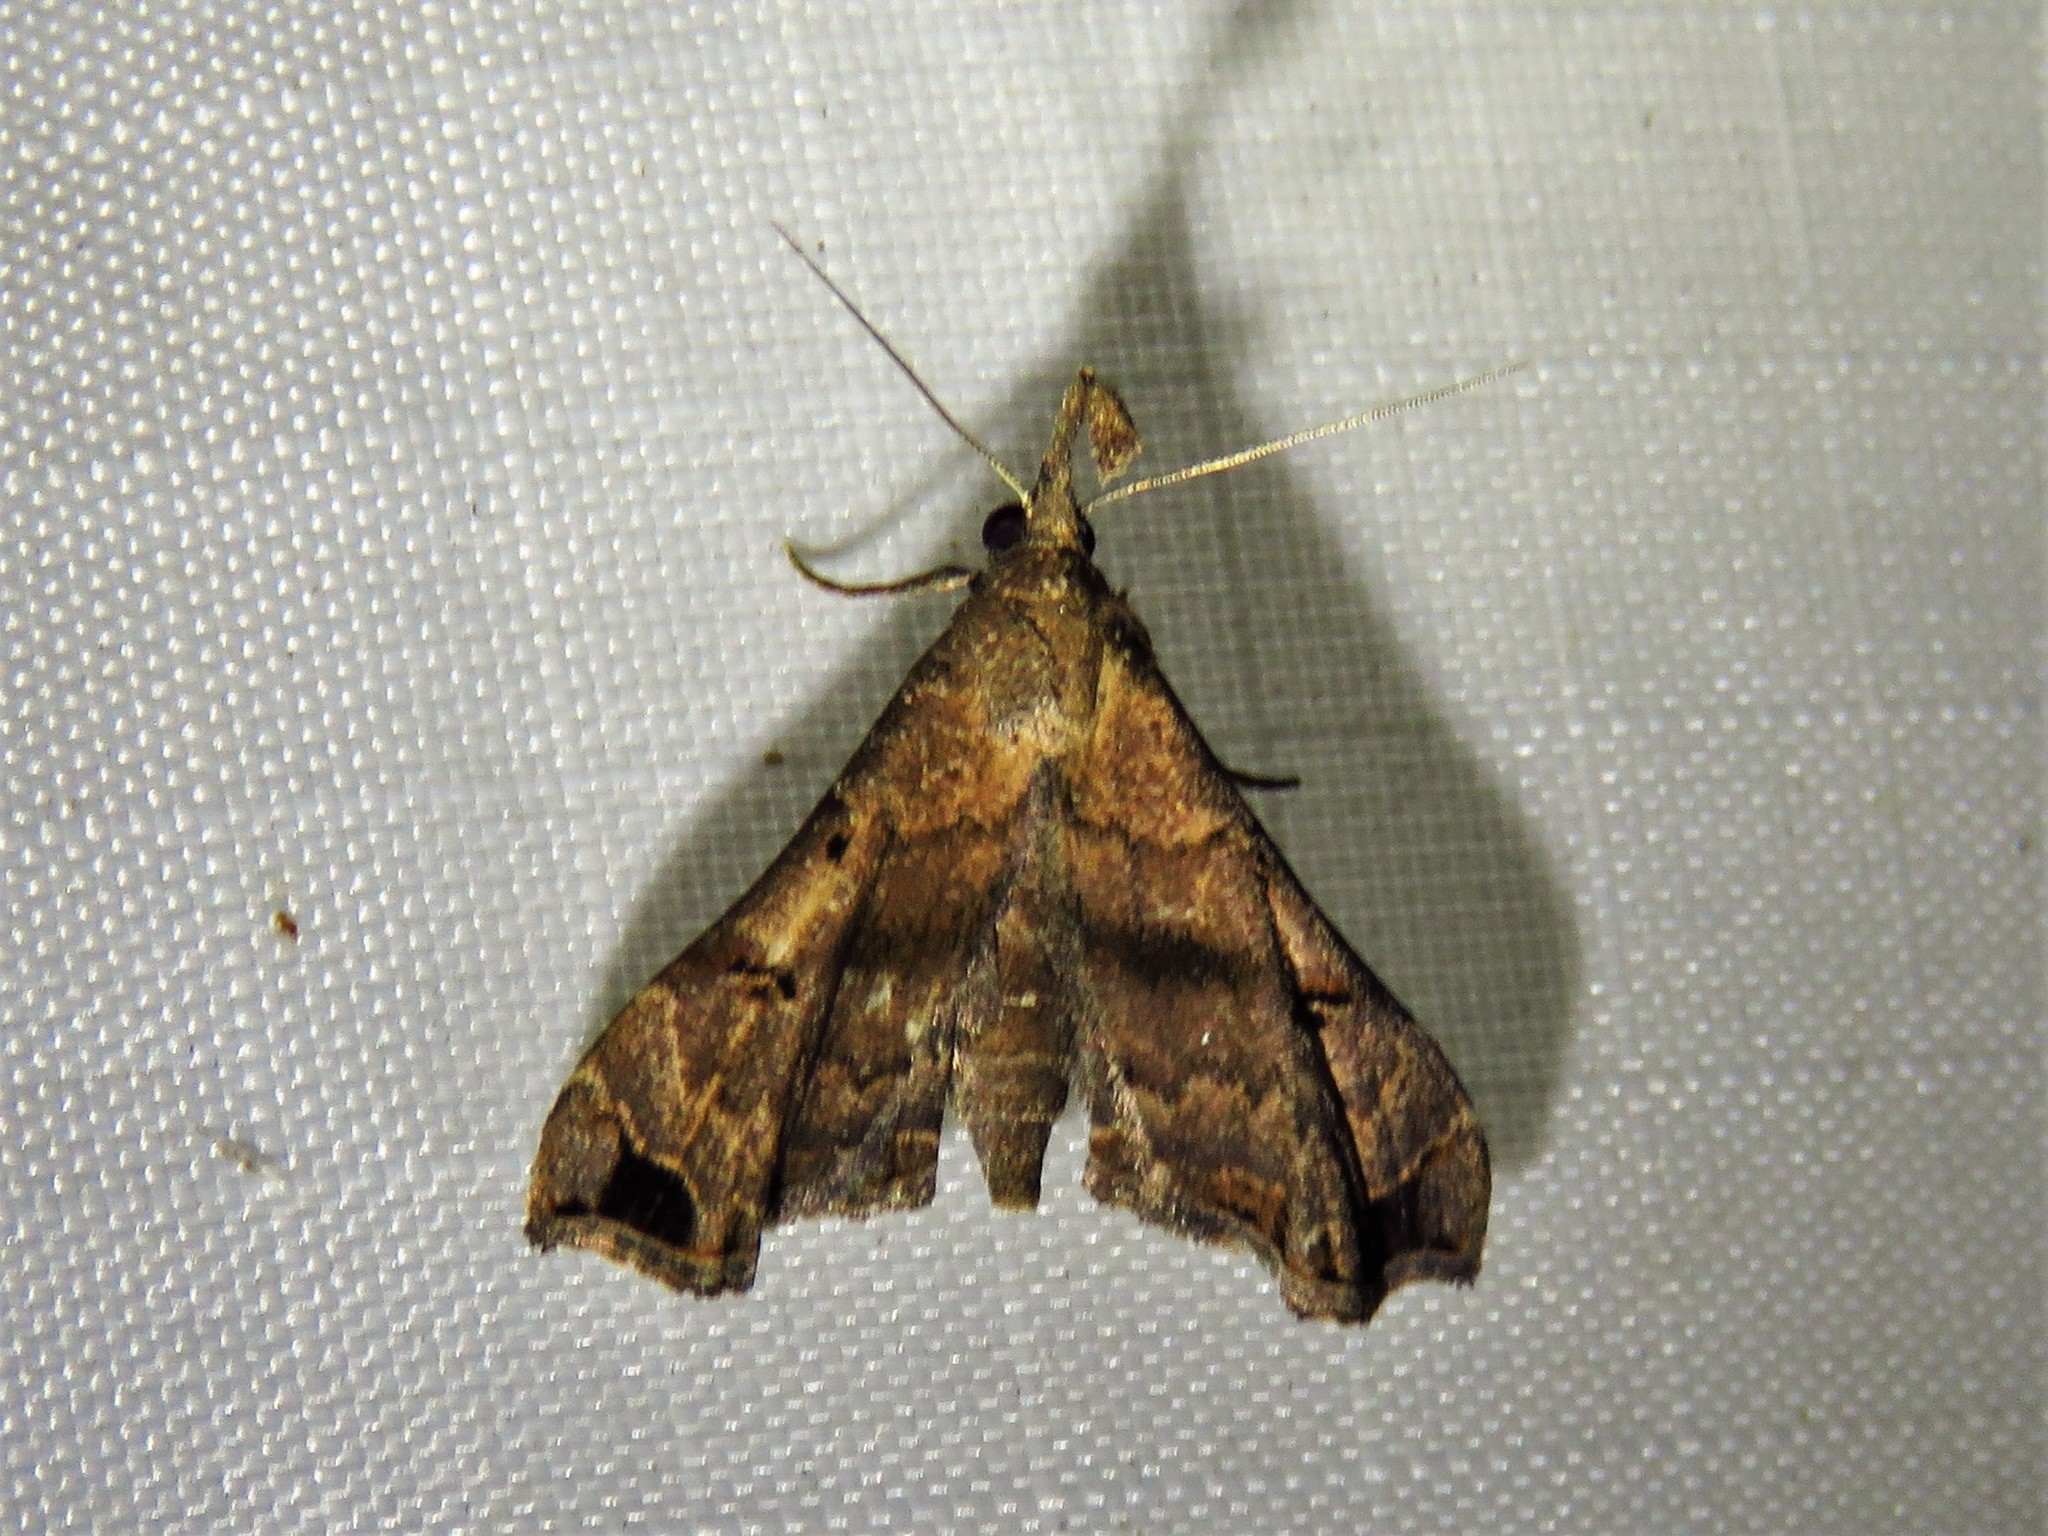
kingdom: Animalia
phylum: Arthropoda
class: Insecta
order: Lepidoptera
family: Erebidae
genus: Palthis
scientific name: Palthis asopialis
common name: Faint-spotted palthis moth
